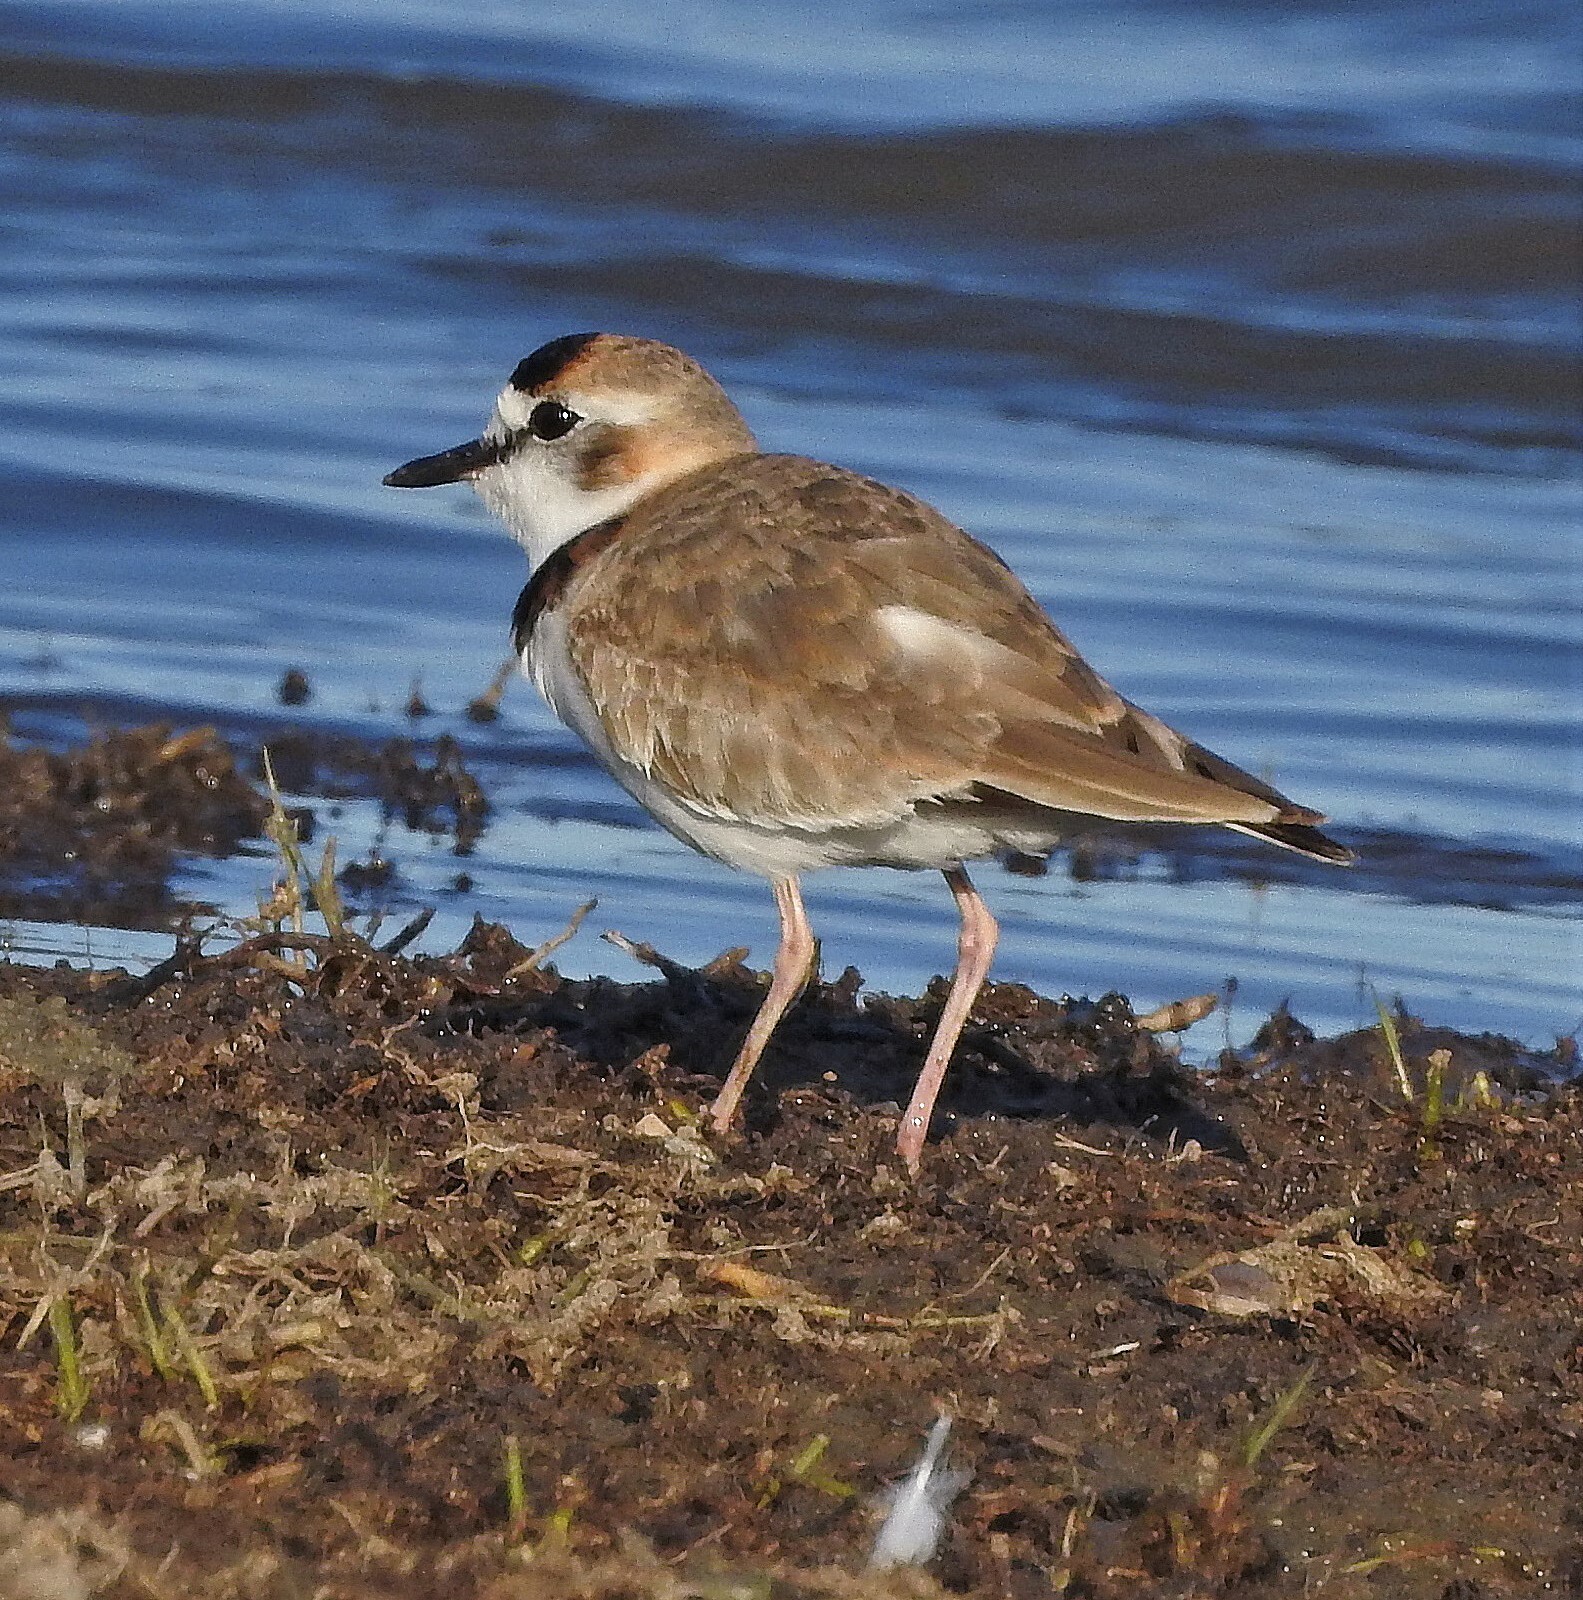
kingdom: Animalia
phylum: Chordata
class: Aves
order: Charadriiformes
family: Charadriidae
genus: Anarhynchus
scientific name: Anarhynchus
